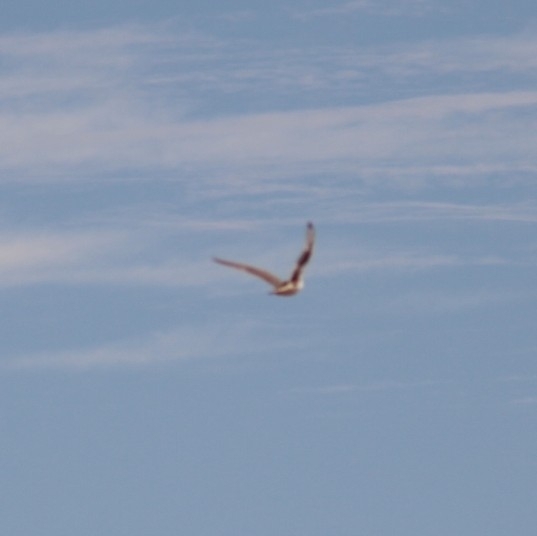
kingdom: Animalia
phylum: Chordata
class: Aves
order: Falconiformes
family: Falconidae
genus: Falco
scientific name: Falco mexicanus
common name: Prairie falcon
